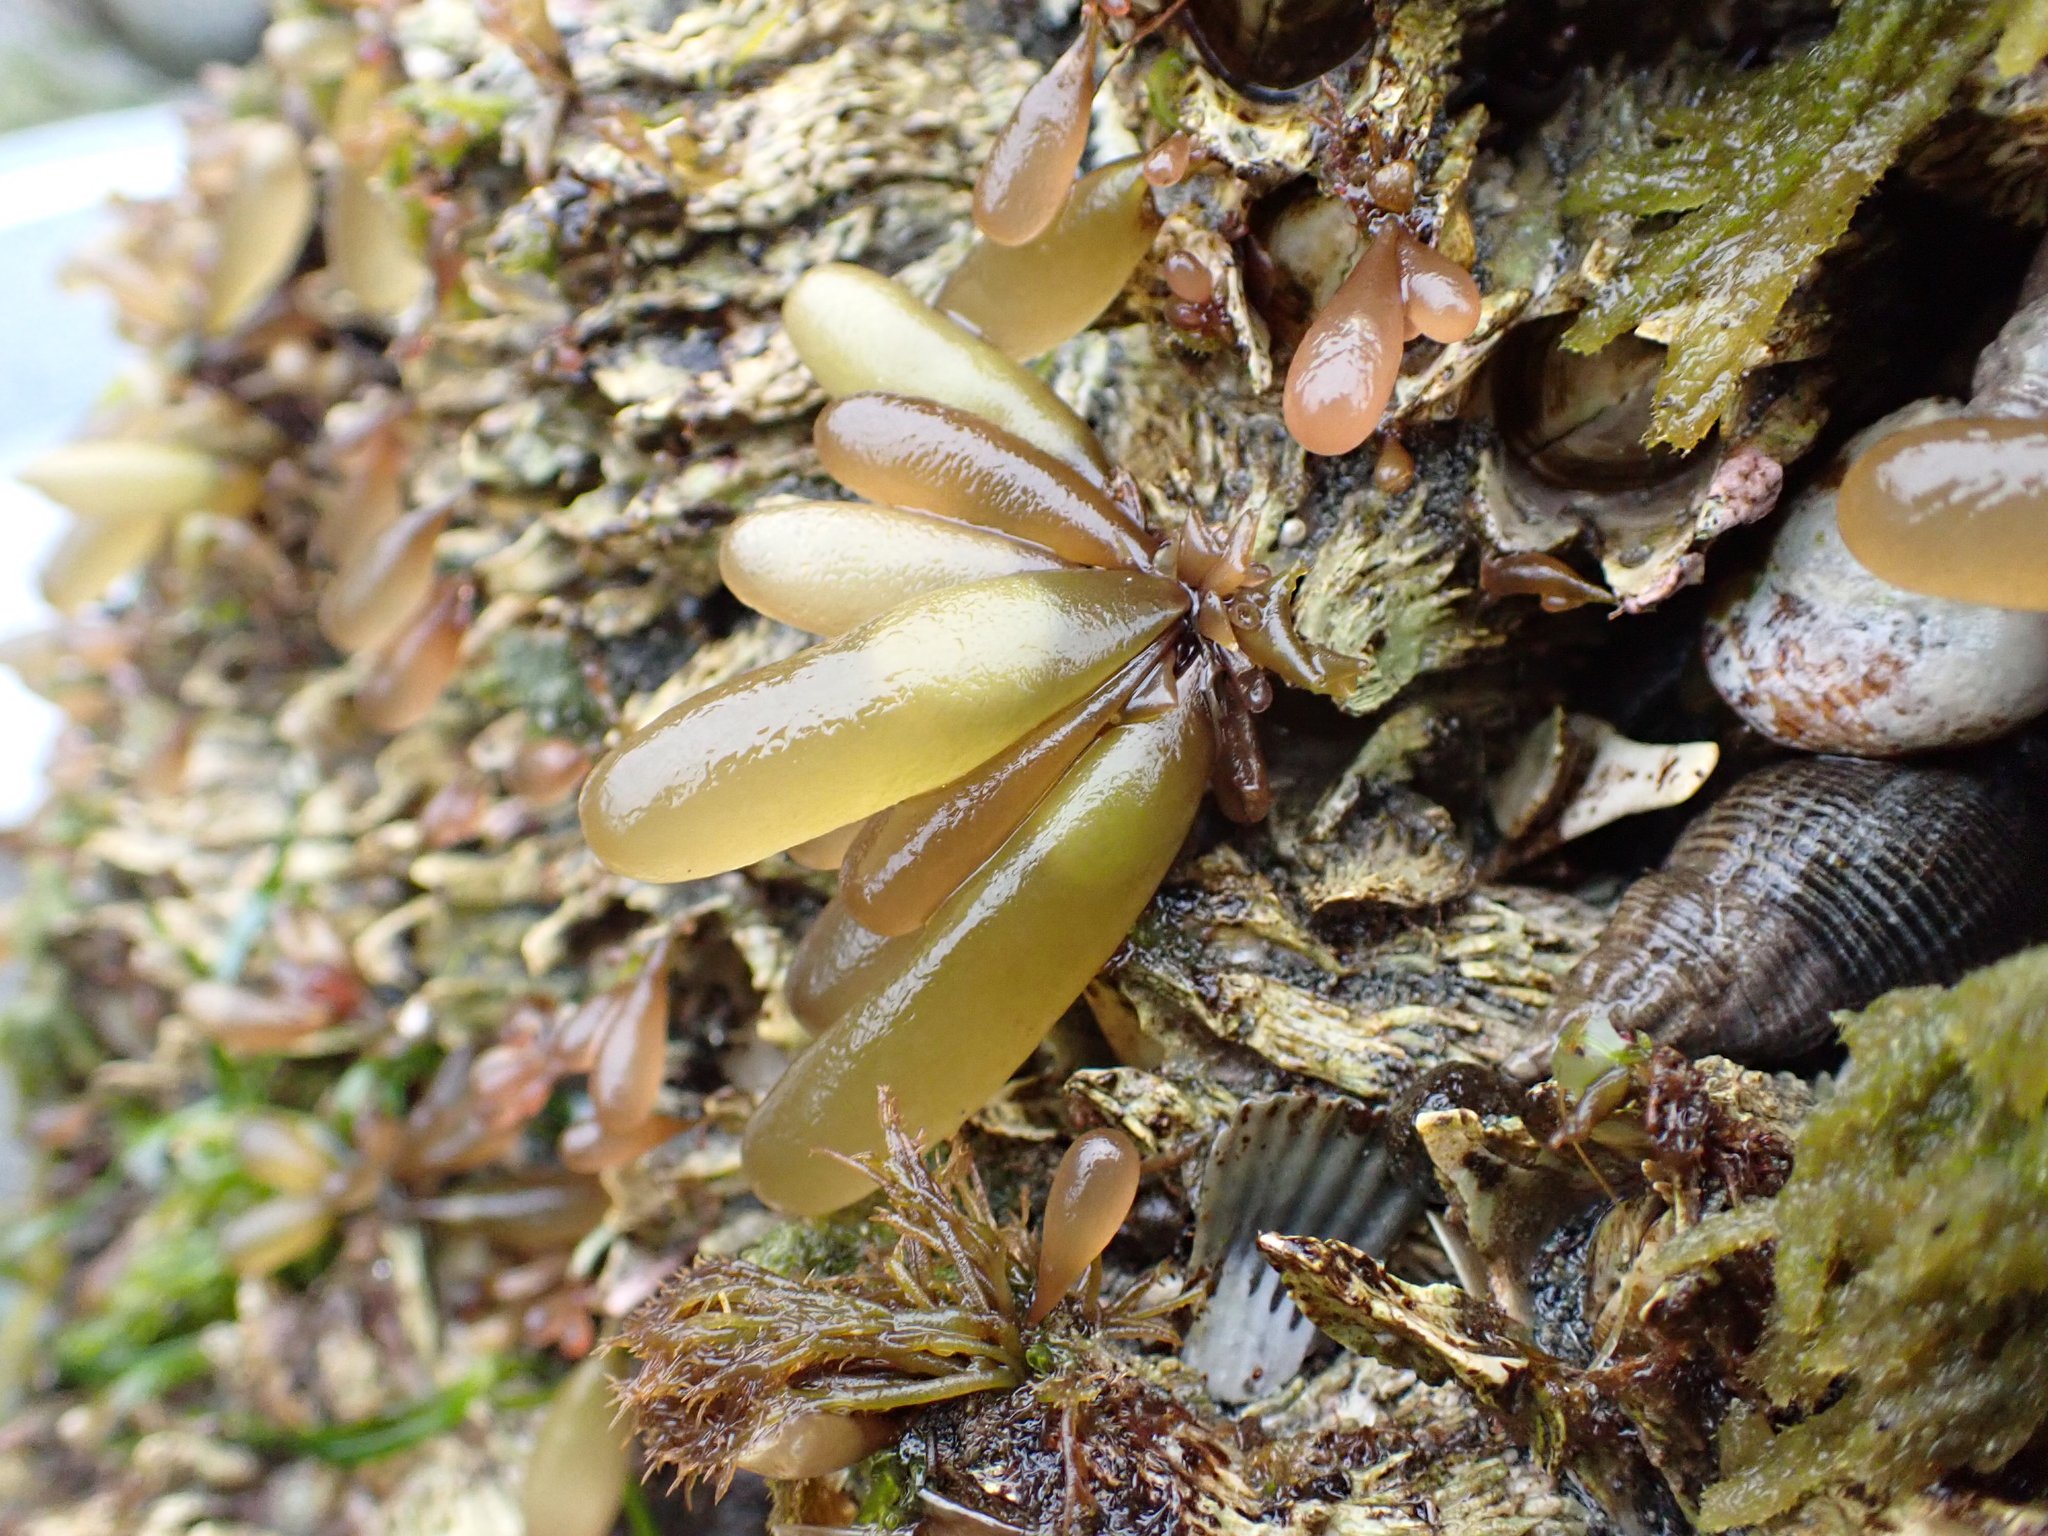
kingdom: Plantae
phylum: Rhodophyta
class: Florideophyceae
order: Palmariales
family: Palmariaceae
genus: Halosaccion
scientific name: Halosaccion glandiforme
